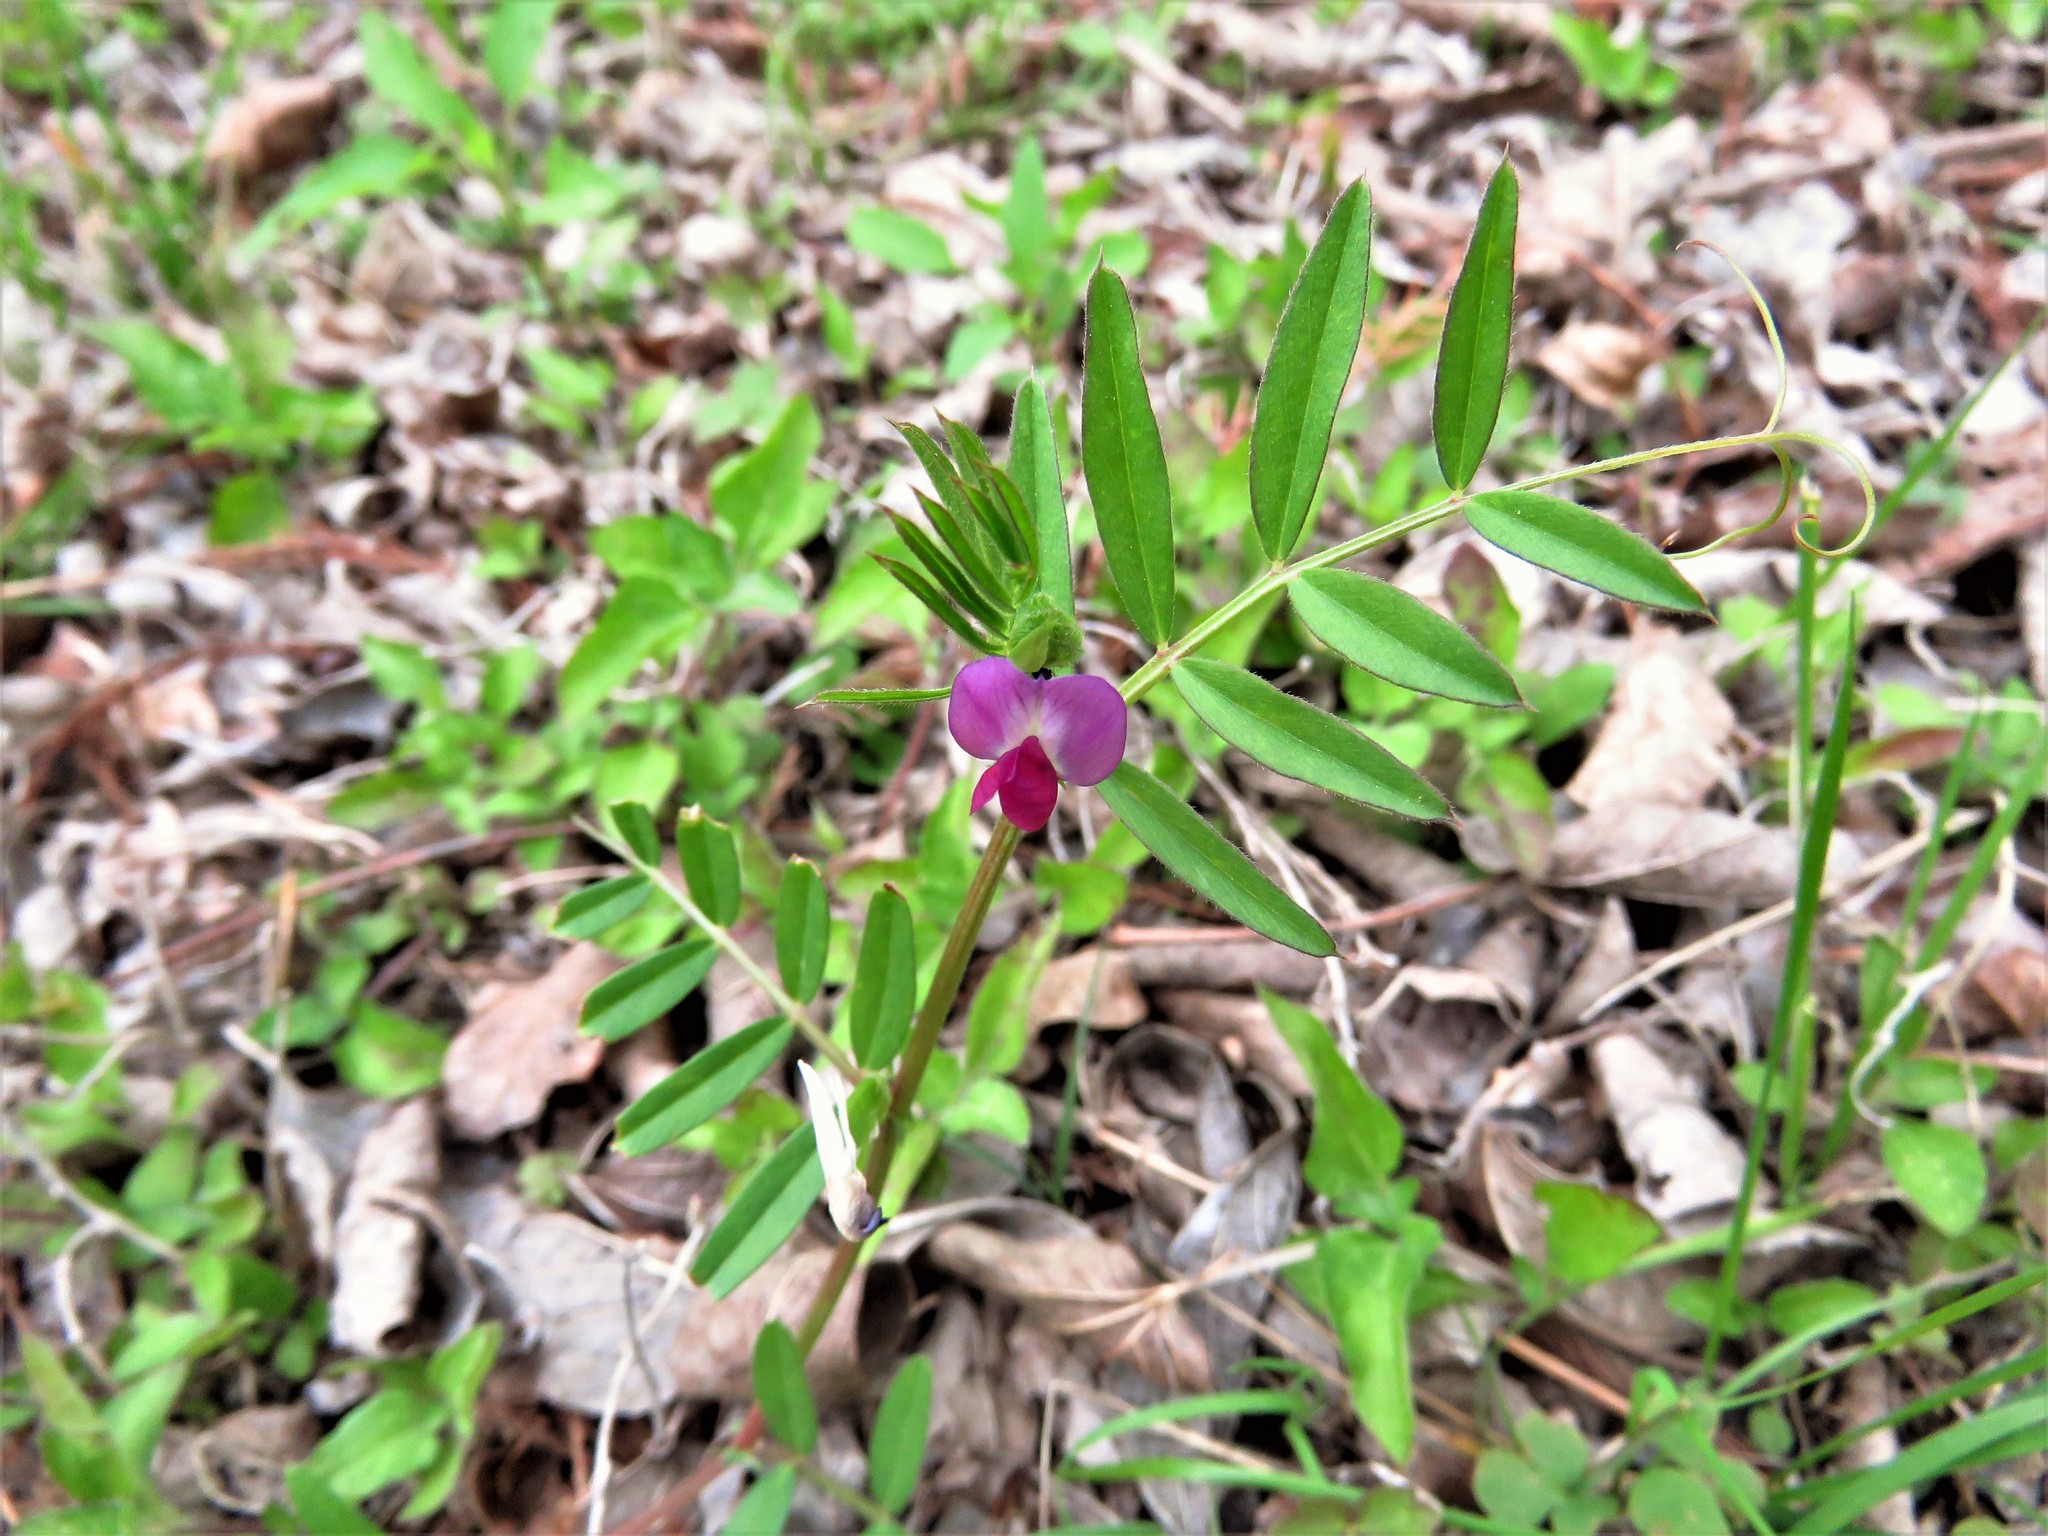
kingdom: Plantae
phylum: Tracheophyta
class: Magnoliopsida
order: Fabales
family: Fabaceae
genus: Vicia
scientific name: Vicia sativa
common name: Garden vetch
